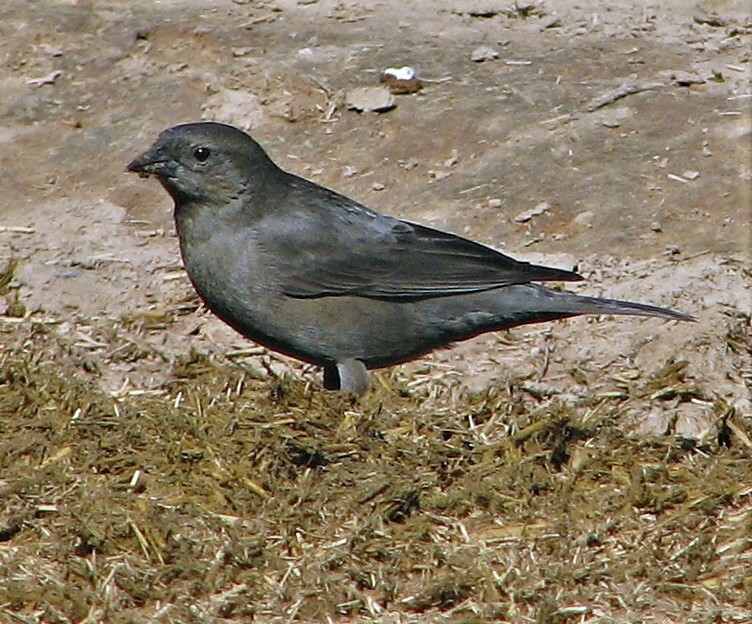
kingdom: Animalia
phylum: Chordata
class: Aves
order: Passeriformes
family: Icteridae
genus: Molothrus
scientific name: Molothrus bonariensis
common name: Shiny cowbird
